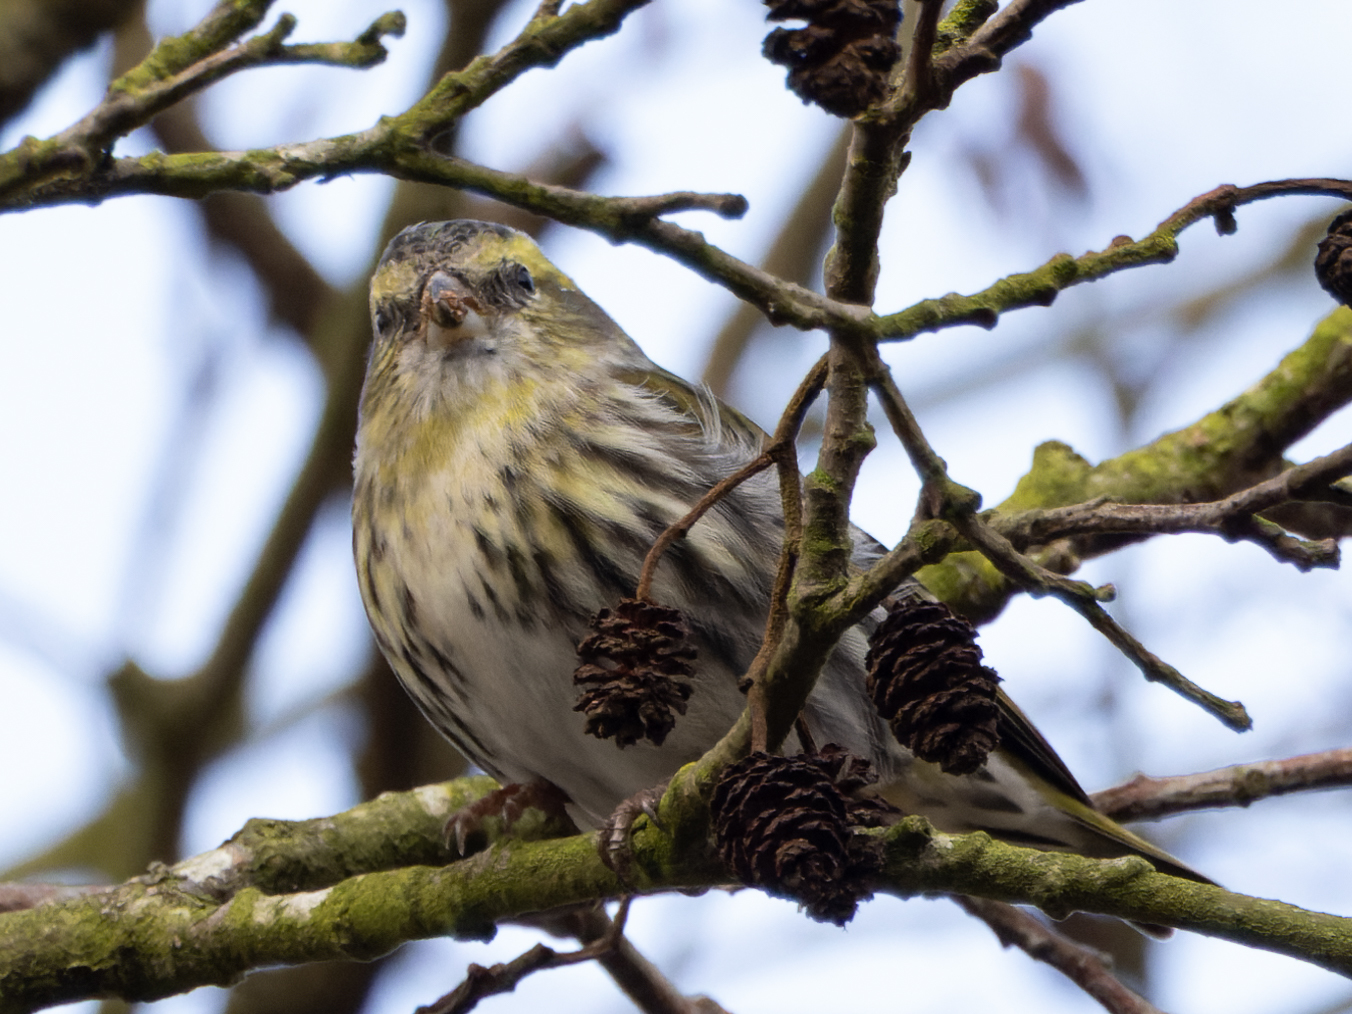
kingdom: Animalia
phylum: Chordata
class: Aves
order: Passeriformes
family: Fringillidae
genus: Spinus
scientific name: Spinus spinus
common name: Eurasian siskin
